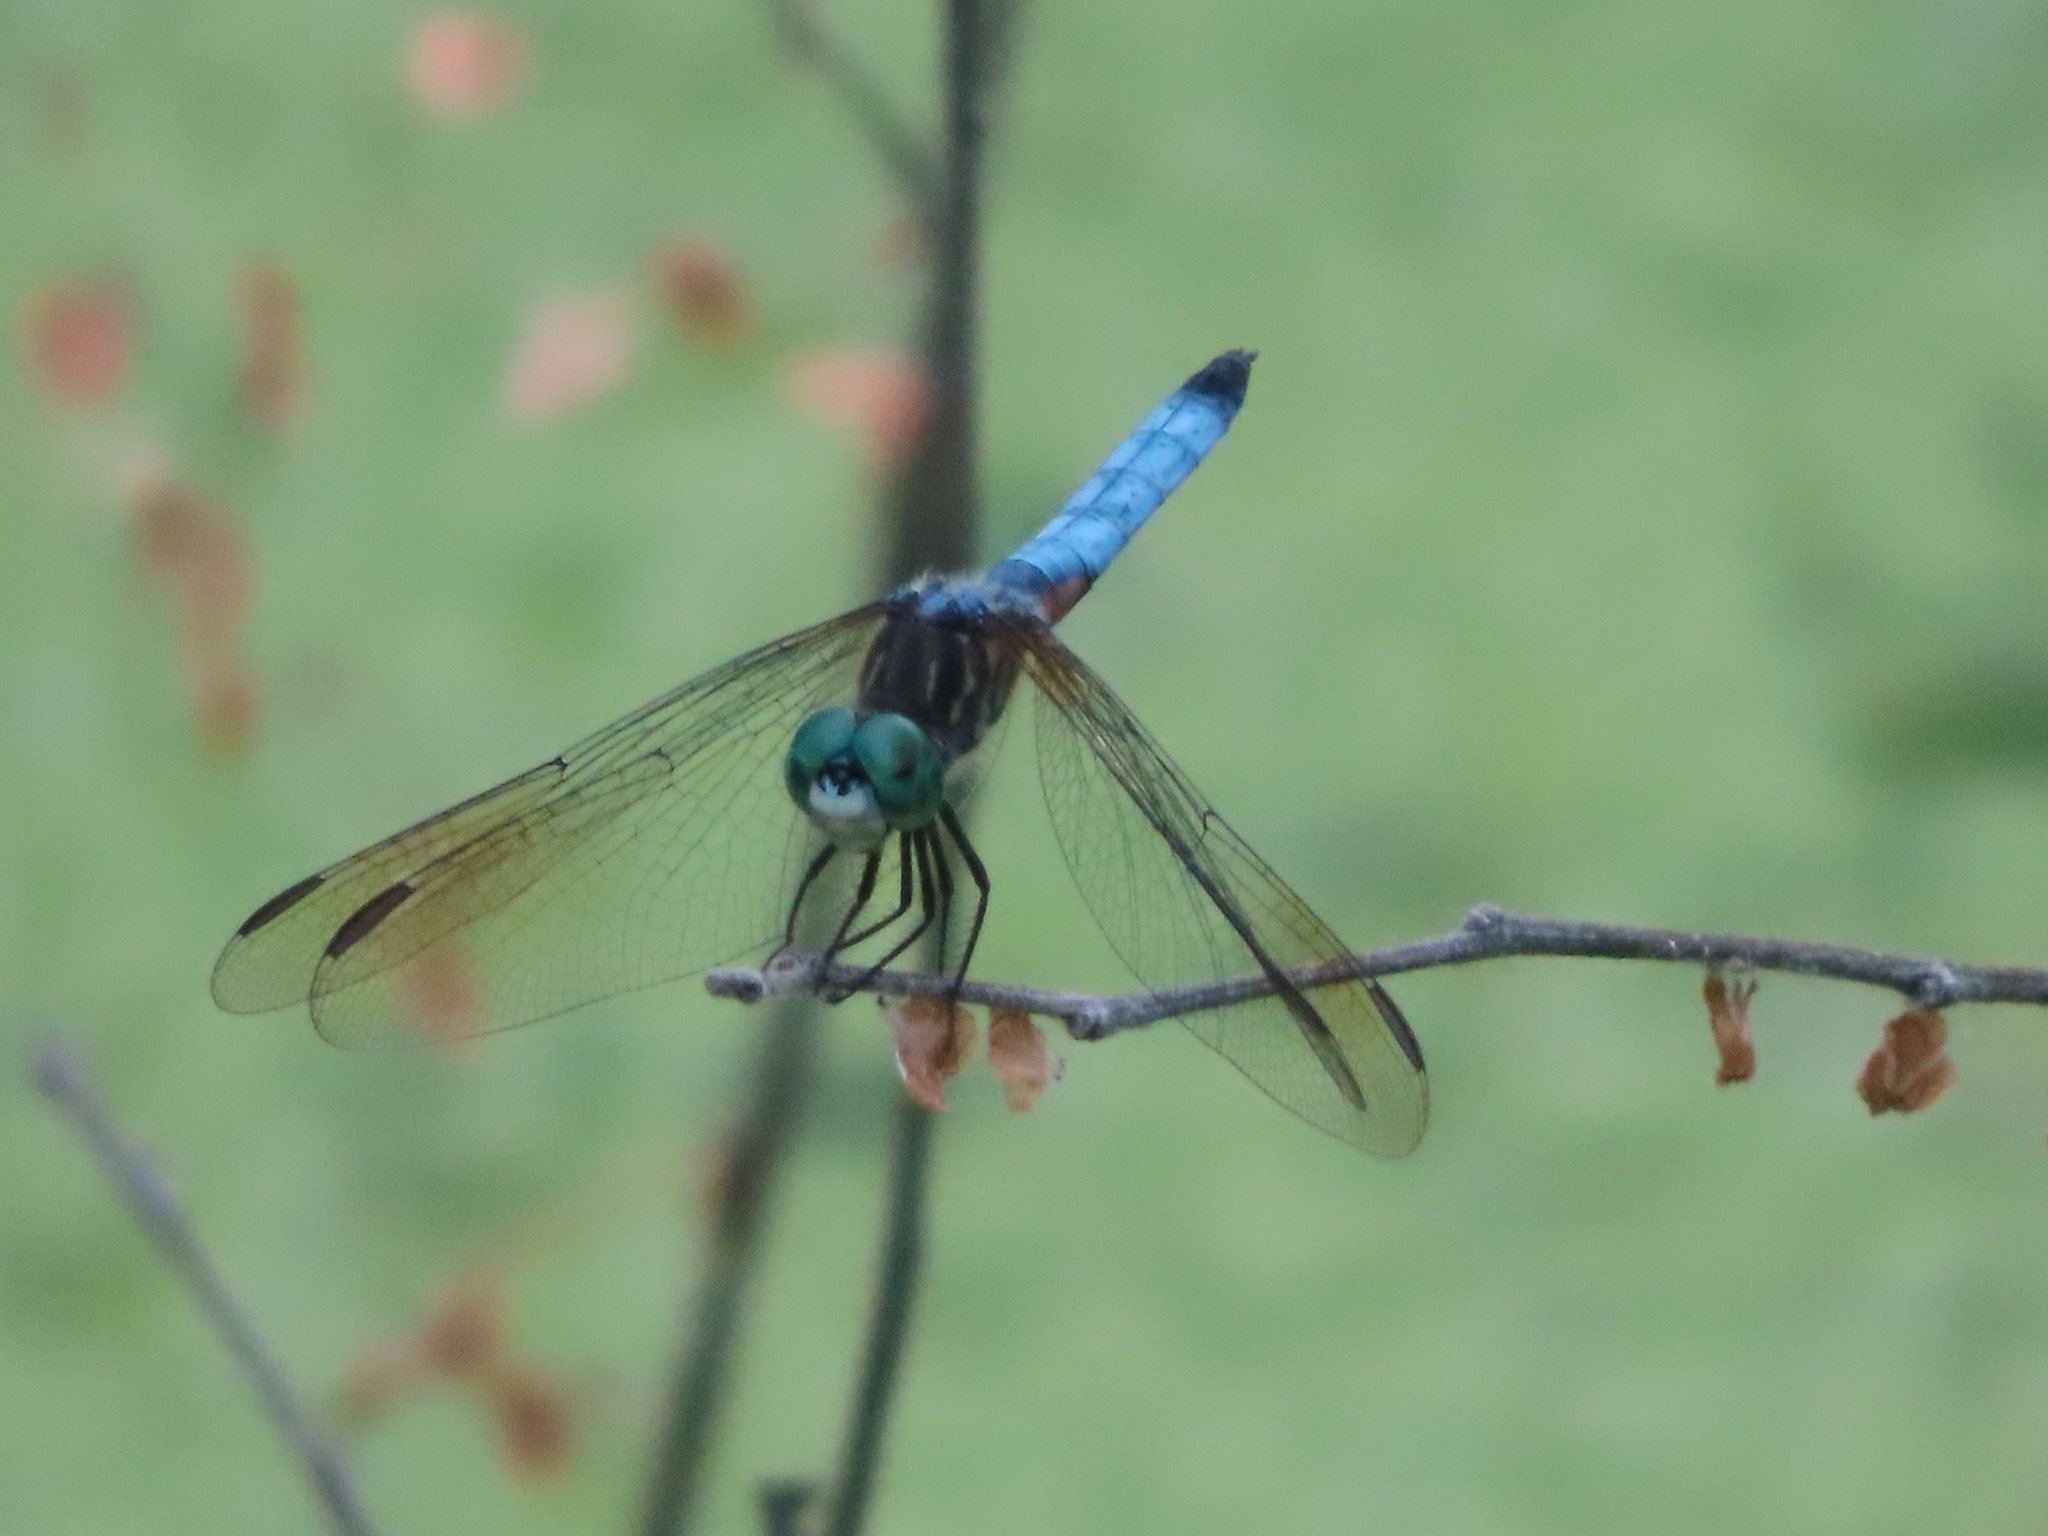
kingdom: Animalia
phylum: Arthropoda
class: Insecta
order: Odonata
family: Libellulidae
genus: Pachydiplax
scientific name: Pachydiplax longipennis
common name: Blue dasher
